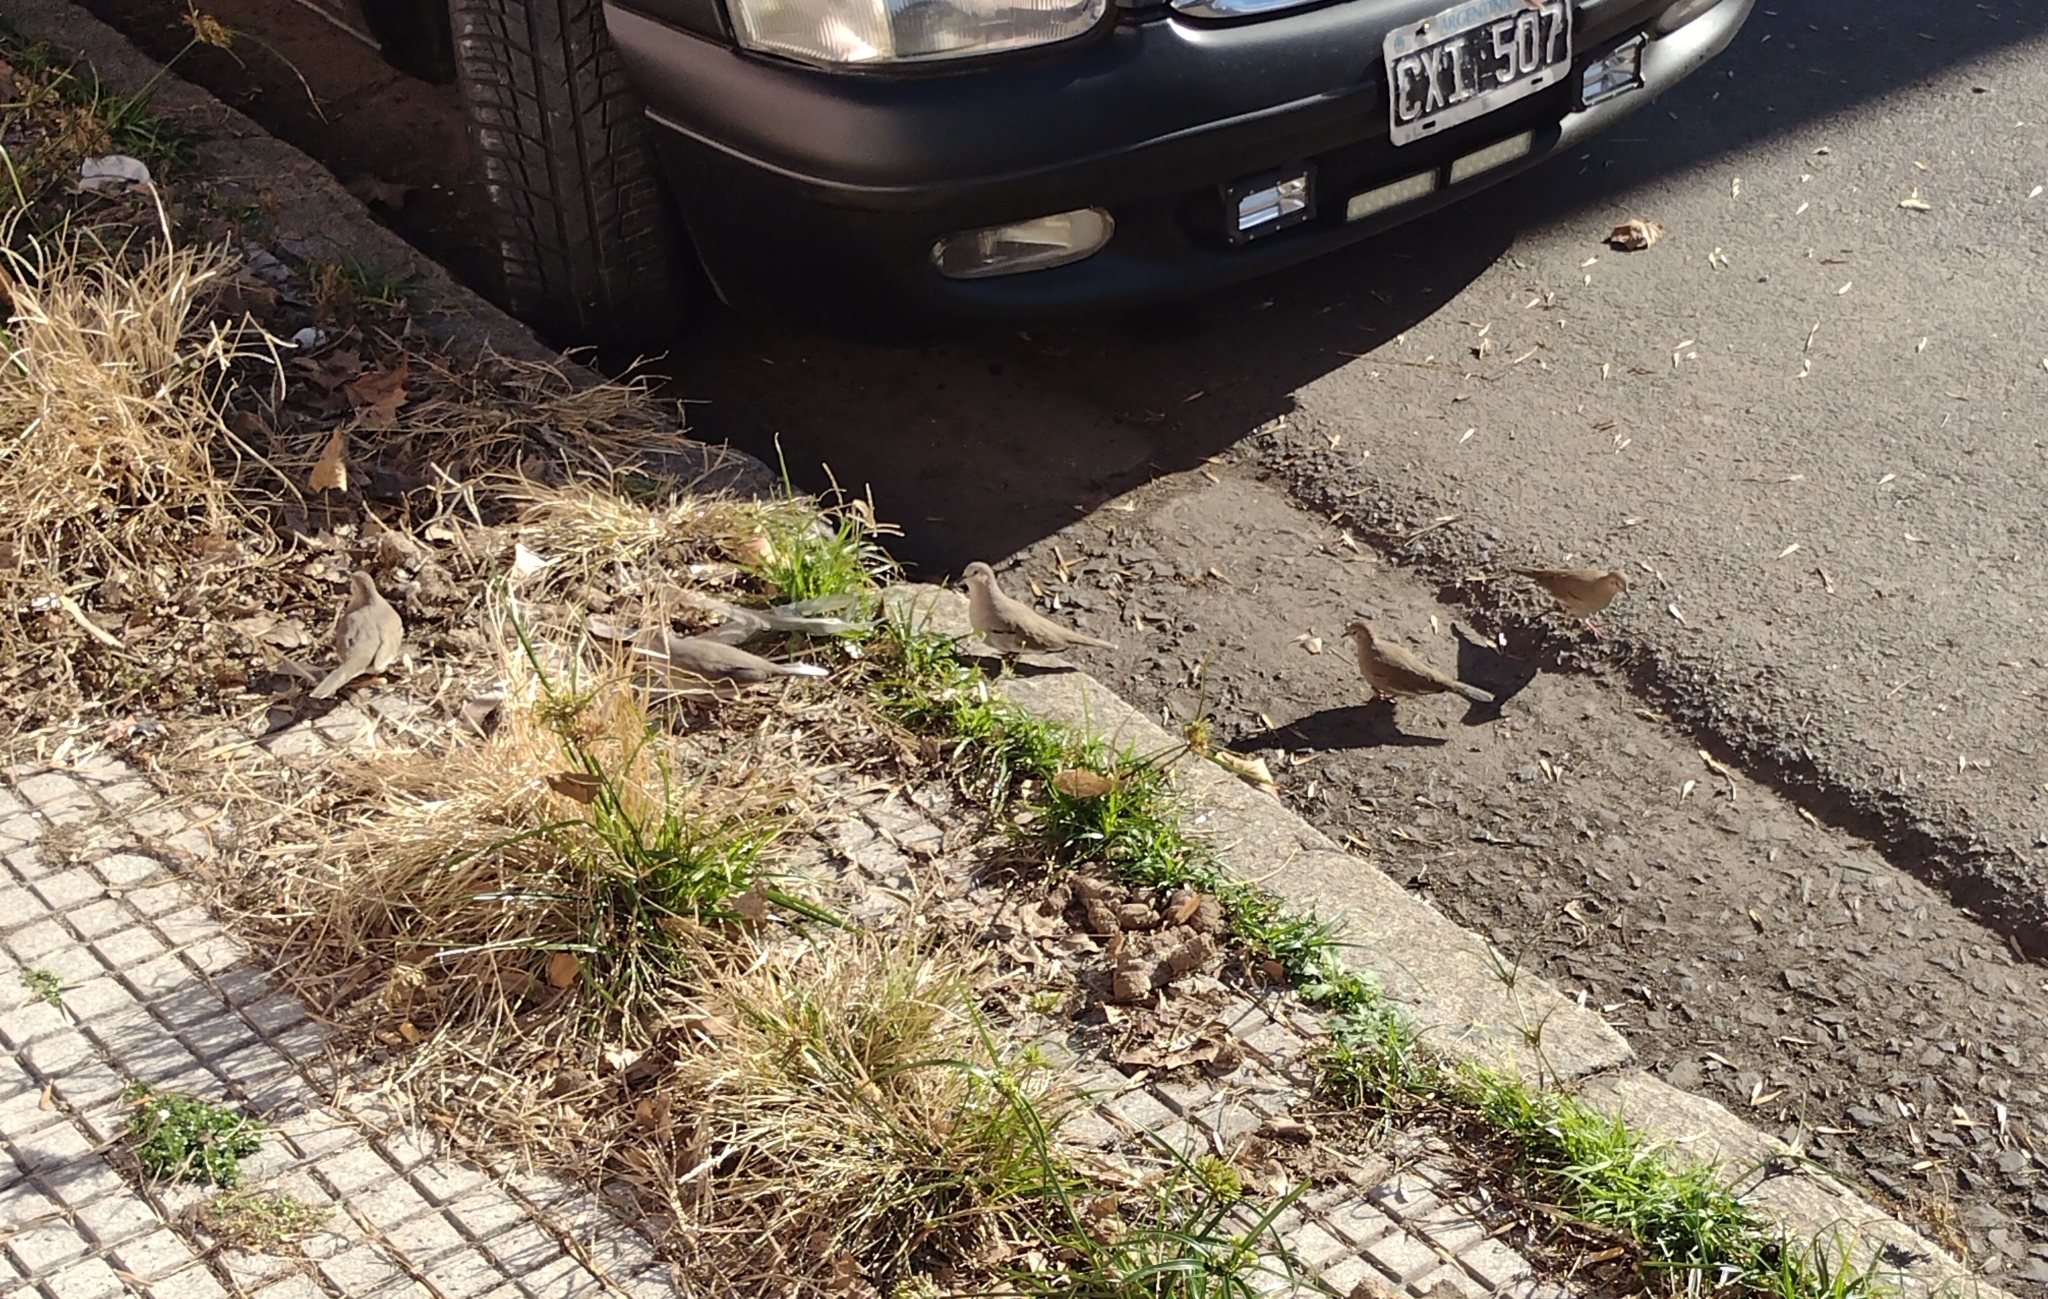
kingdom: Animalia
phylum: Chordata
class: Aves
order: Columbiformes
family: Columbidae
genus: Columbina
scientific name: Columbina picui
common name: Picui ground dove
